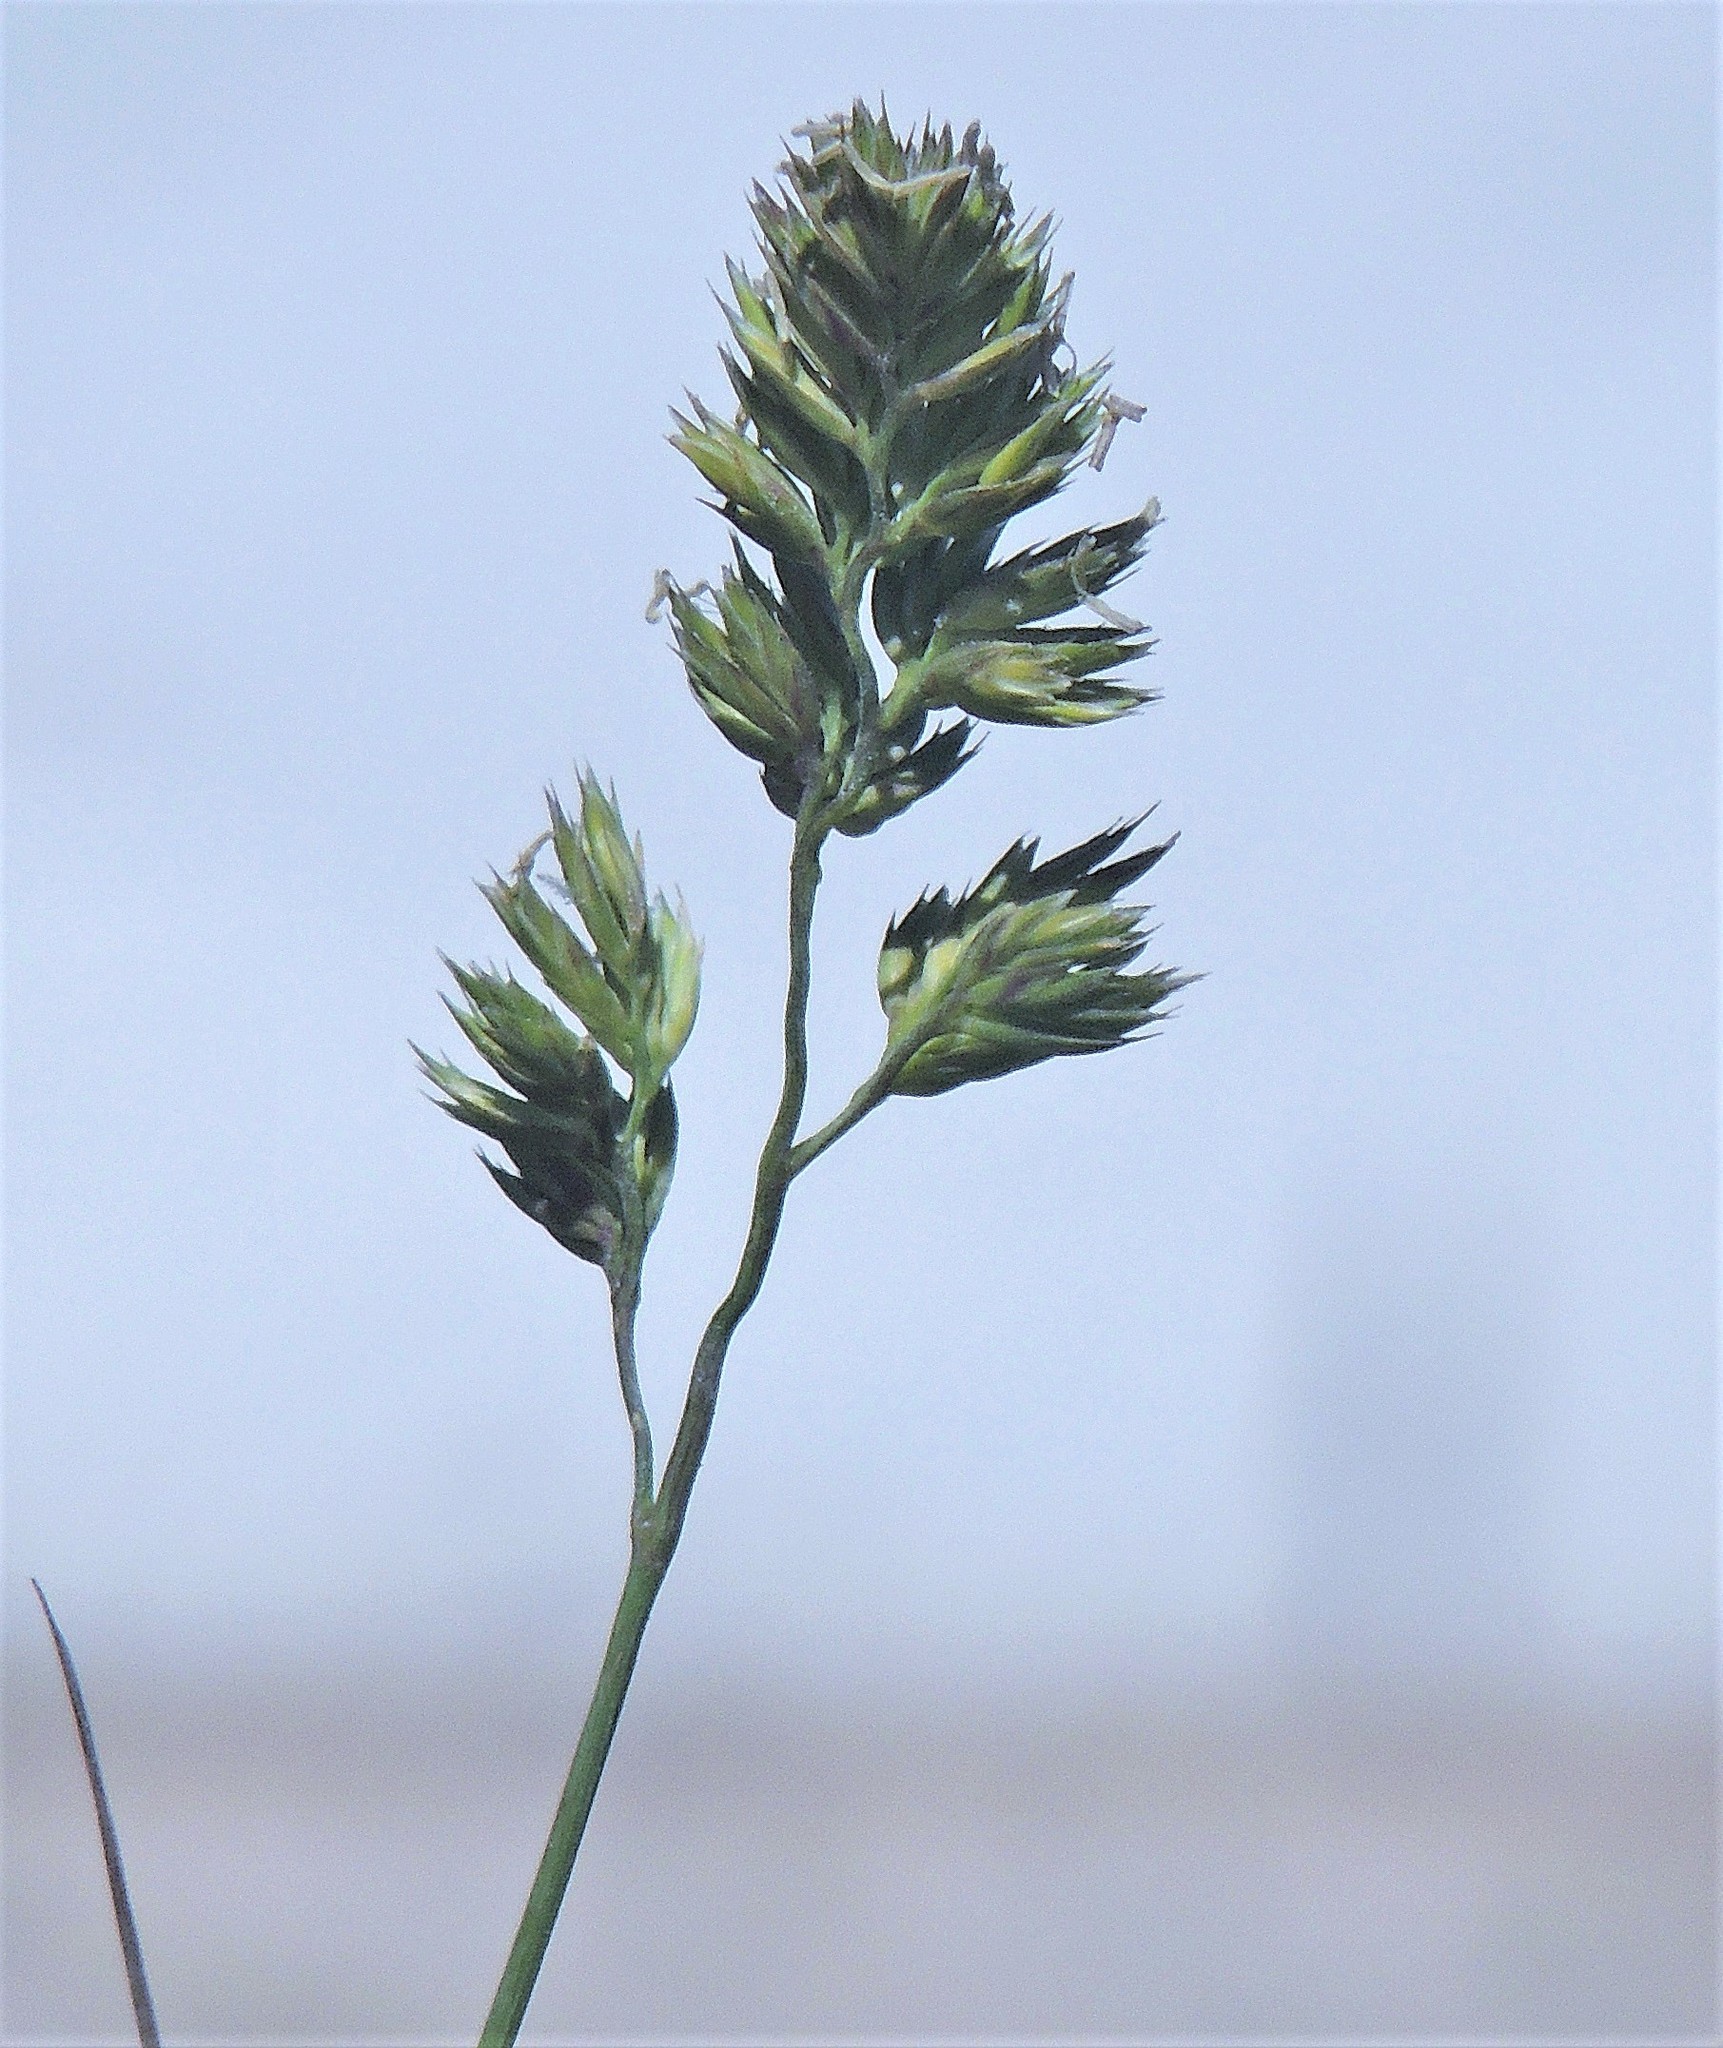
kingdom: Plantae
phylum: Tracheophyta
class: Liliopsida
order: Poales
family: Poaceae
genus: Dactylis
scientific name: Dactylis glomerata
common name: Orchardgrass
